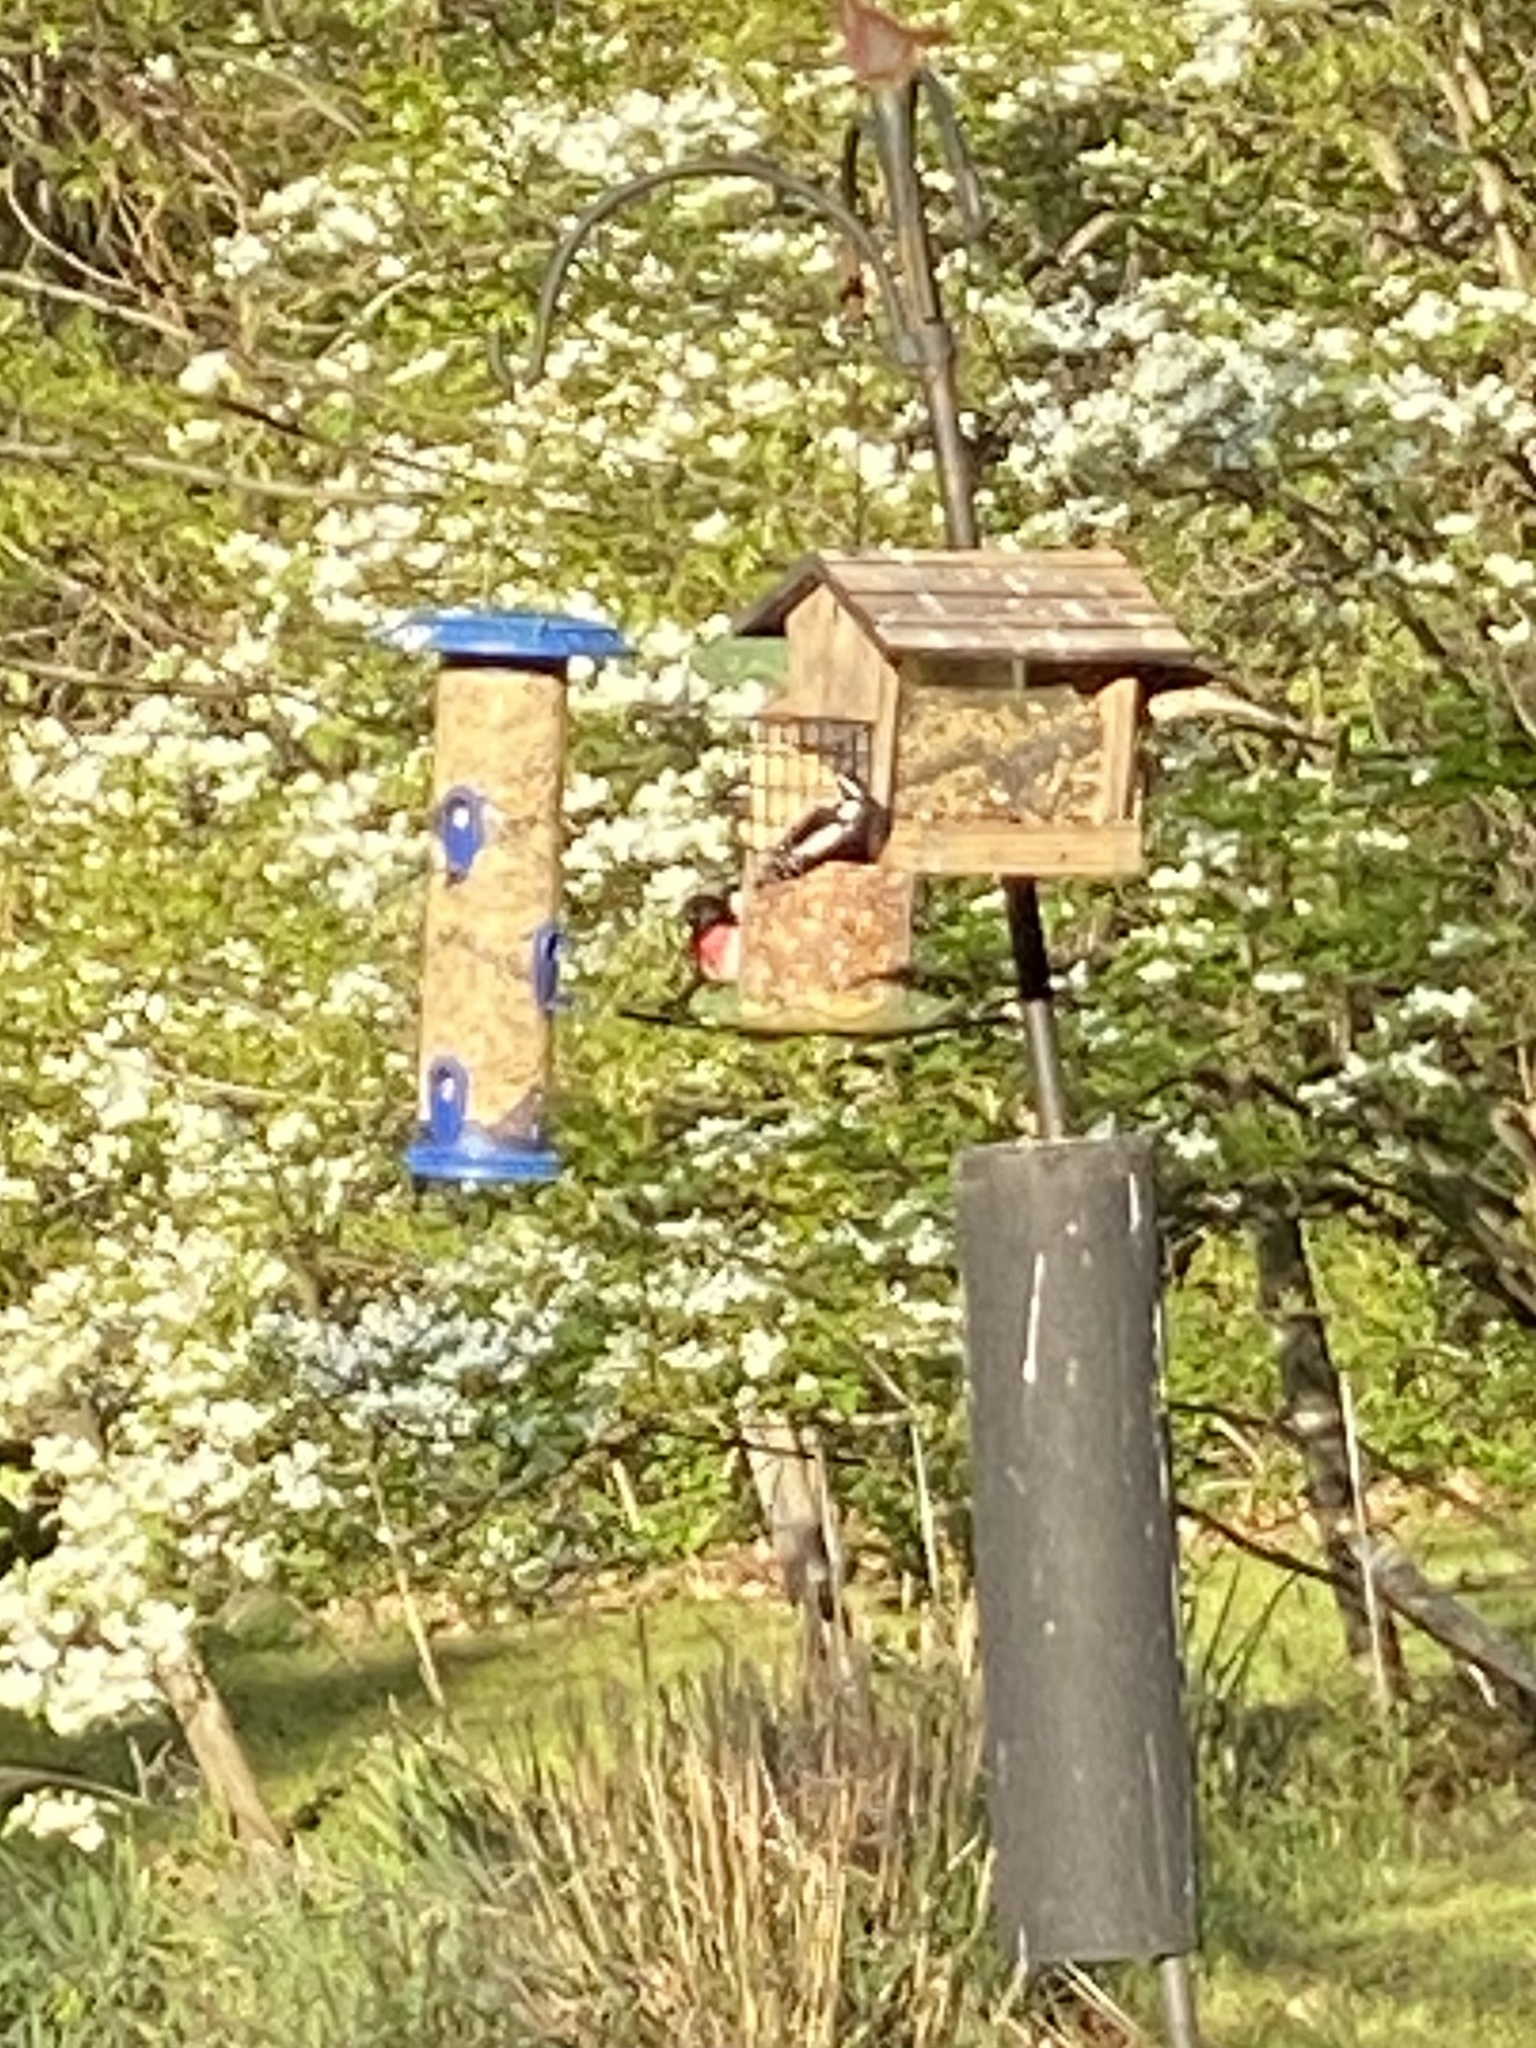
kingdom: Animalia
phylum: Chordata
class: Aves
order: Passeriformes
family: Cardinalidae
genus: Pheucticus
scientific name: Pheucticus ludovicianus
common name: Rose-breasted grosbeak
